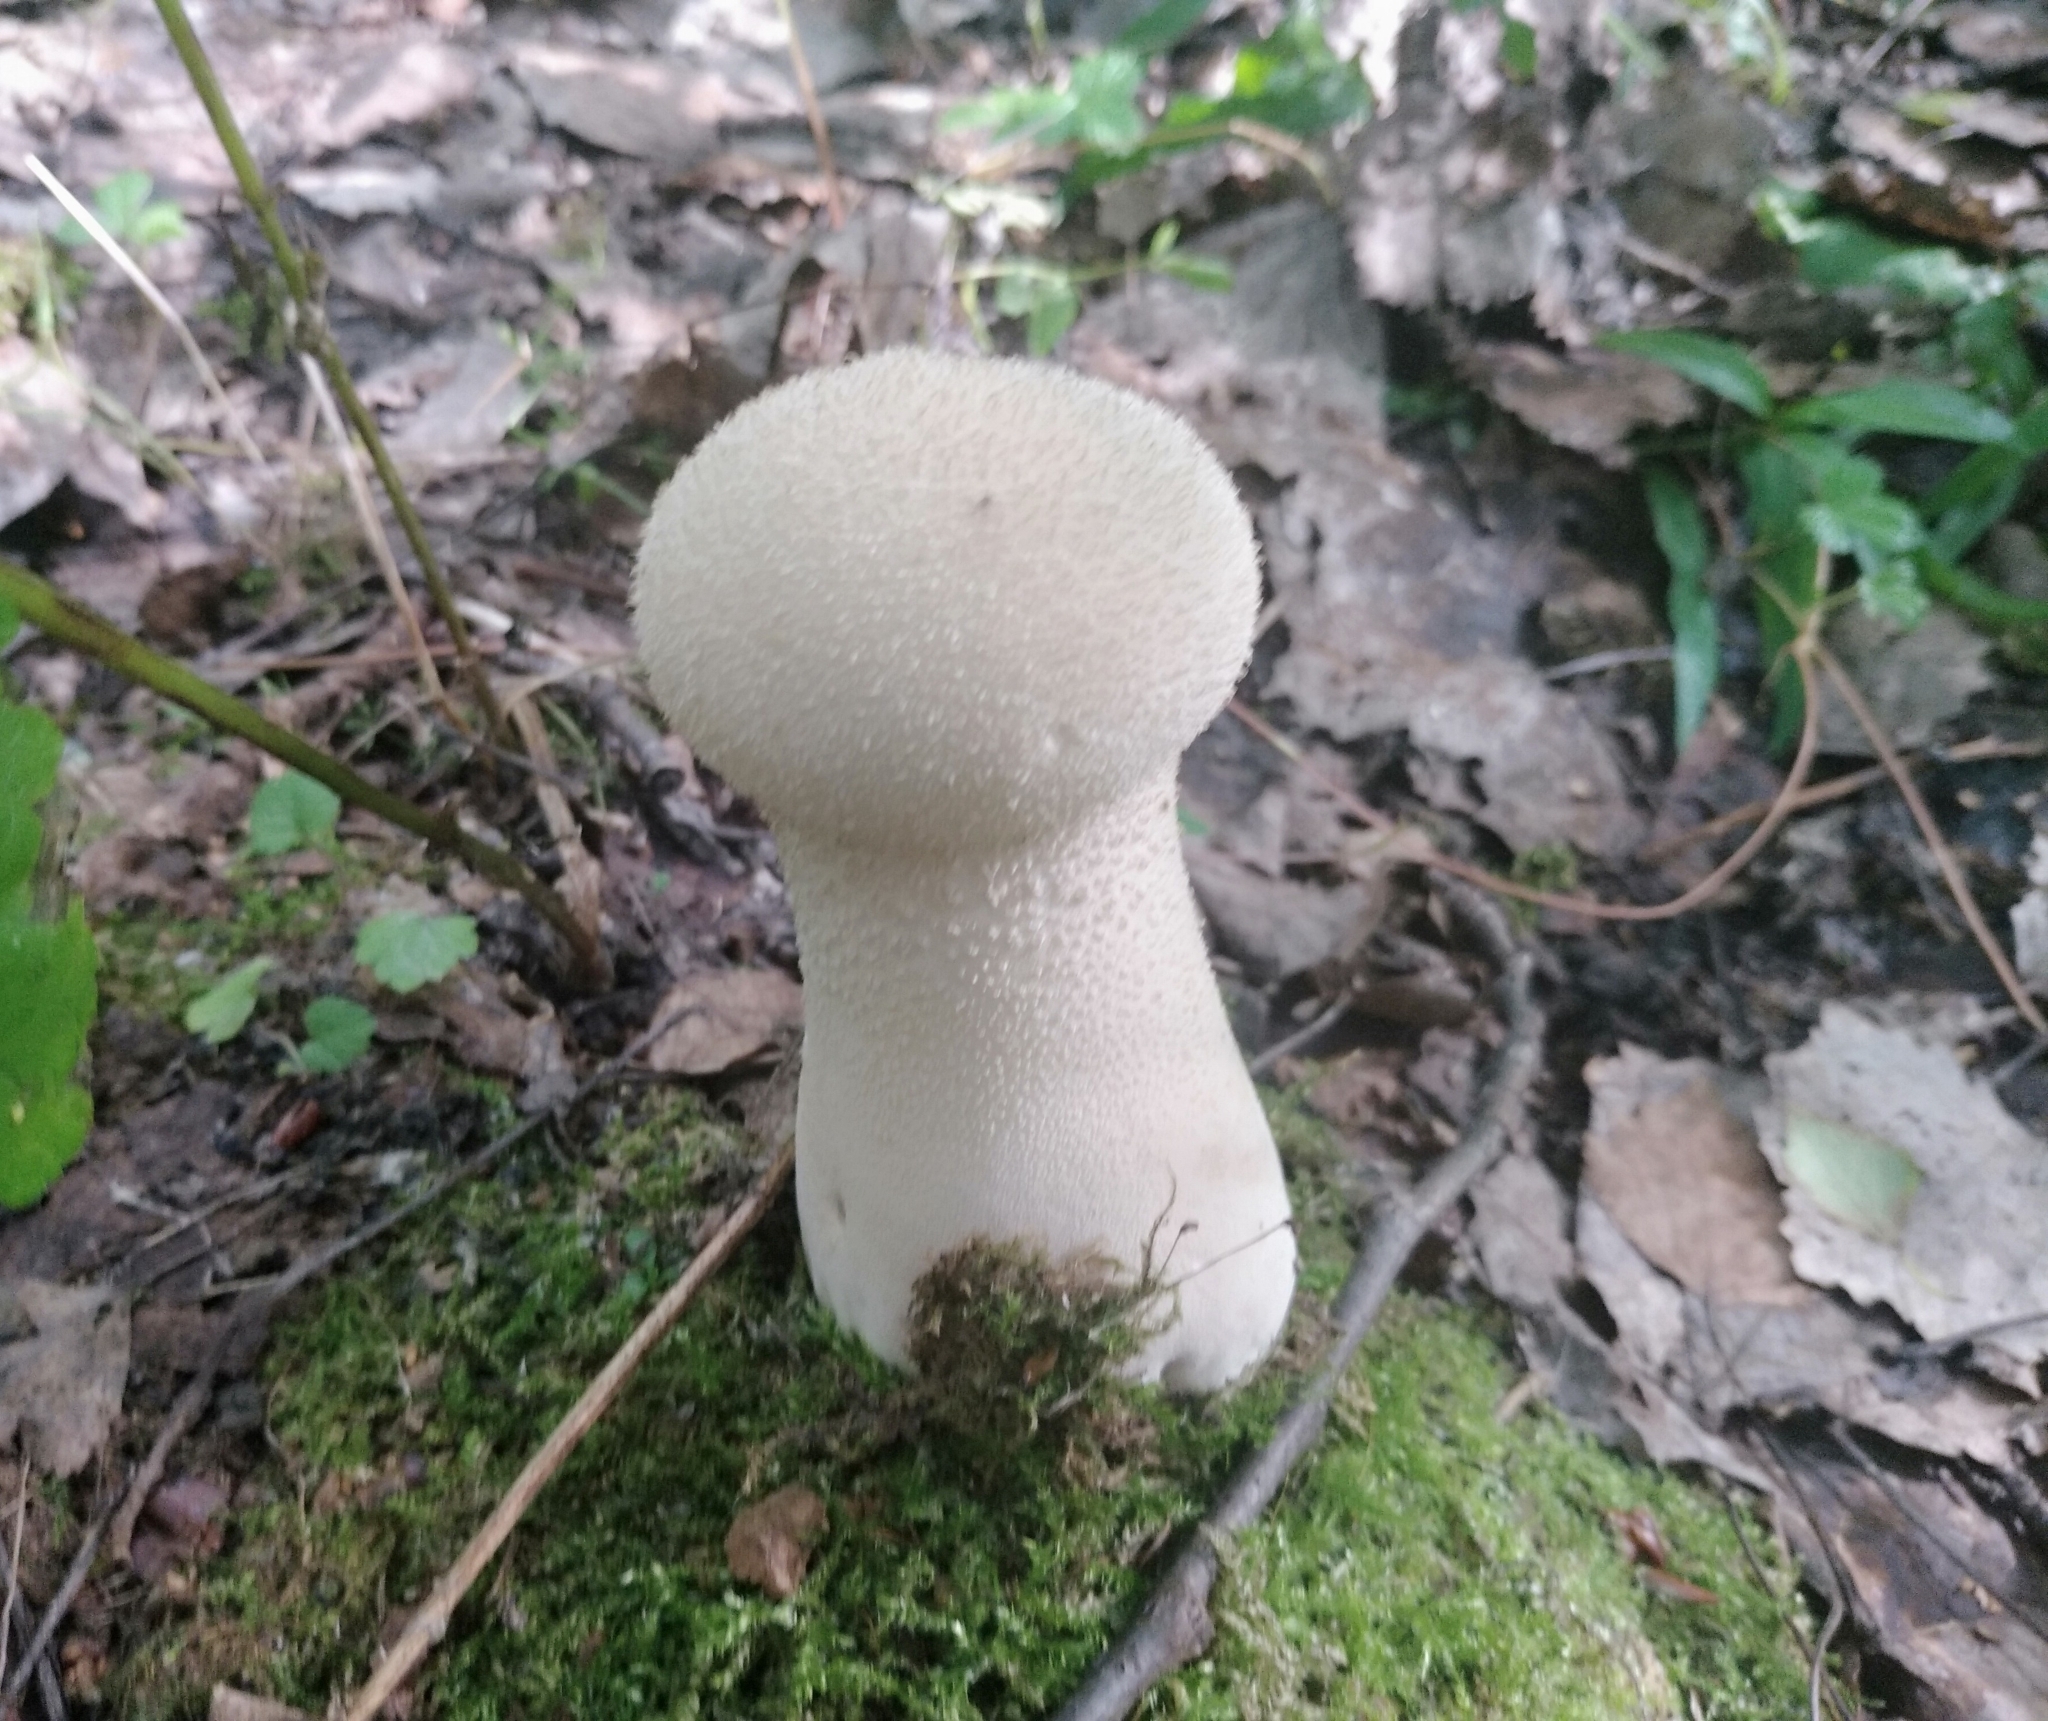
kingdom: Fungi
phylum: Basidiomycota
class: Agaricomycetes
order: Agaricales
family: Lycoperdaceae
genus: Lycoperdon
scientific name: Lycoperdon excipuliforme
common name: Pestle puffball
